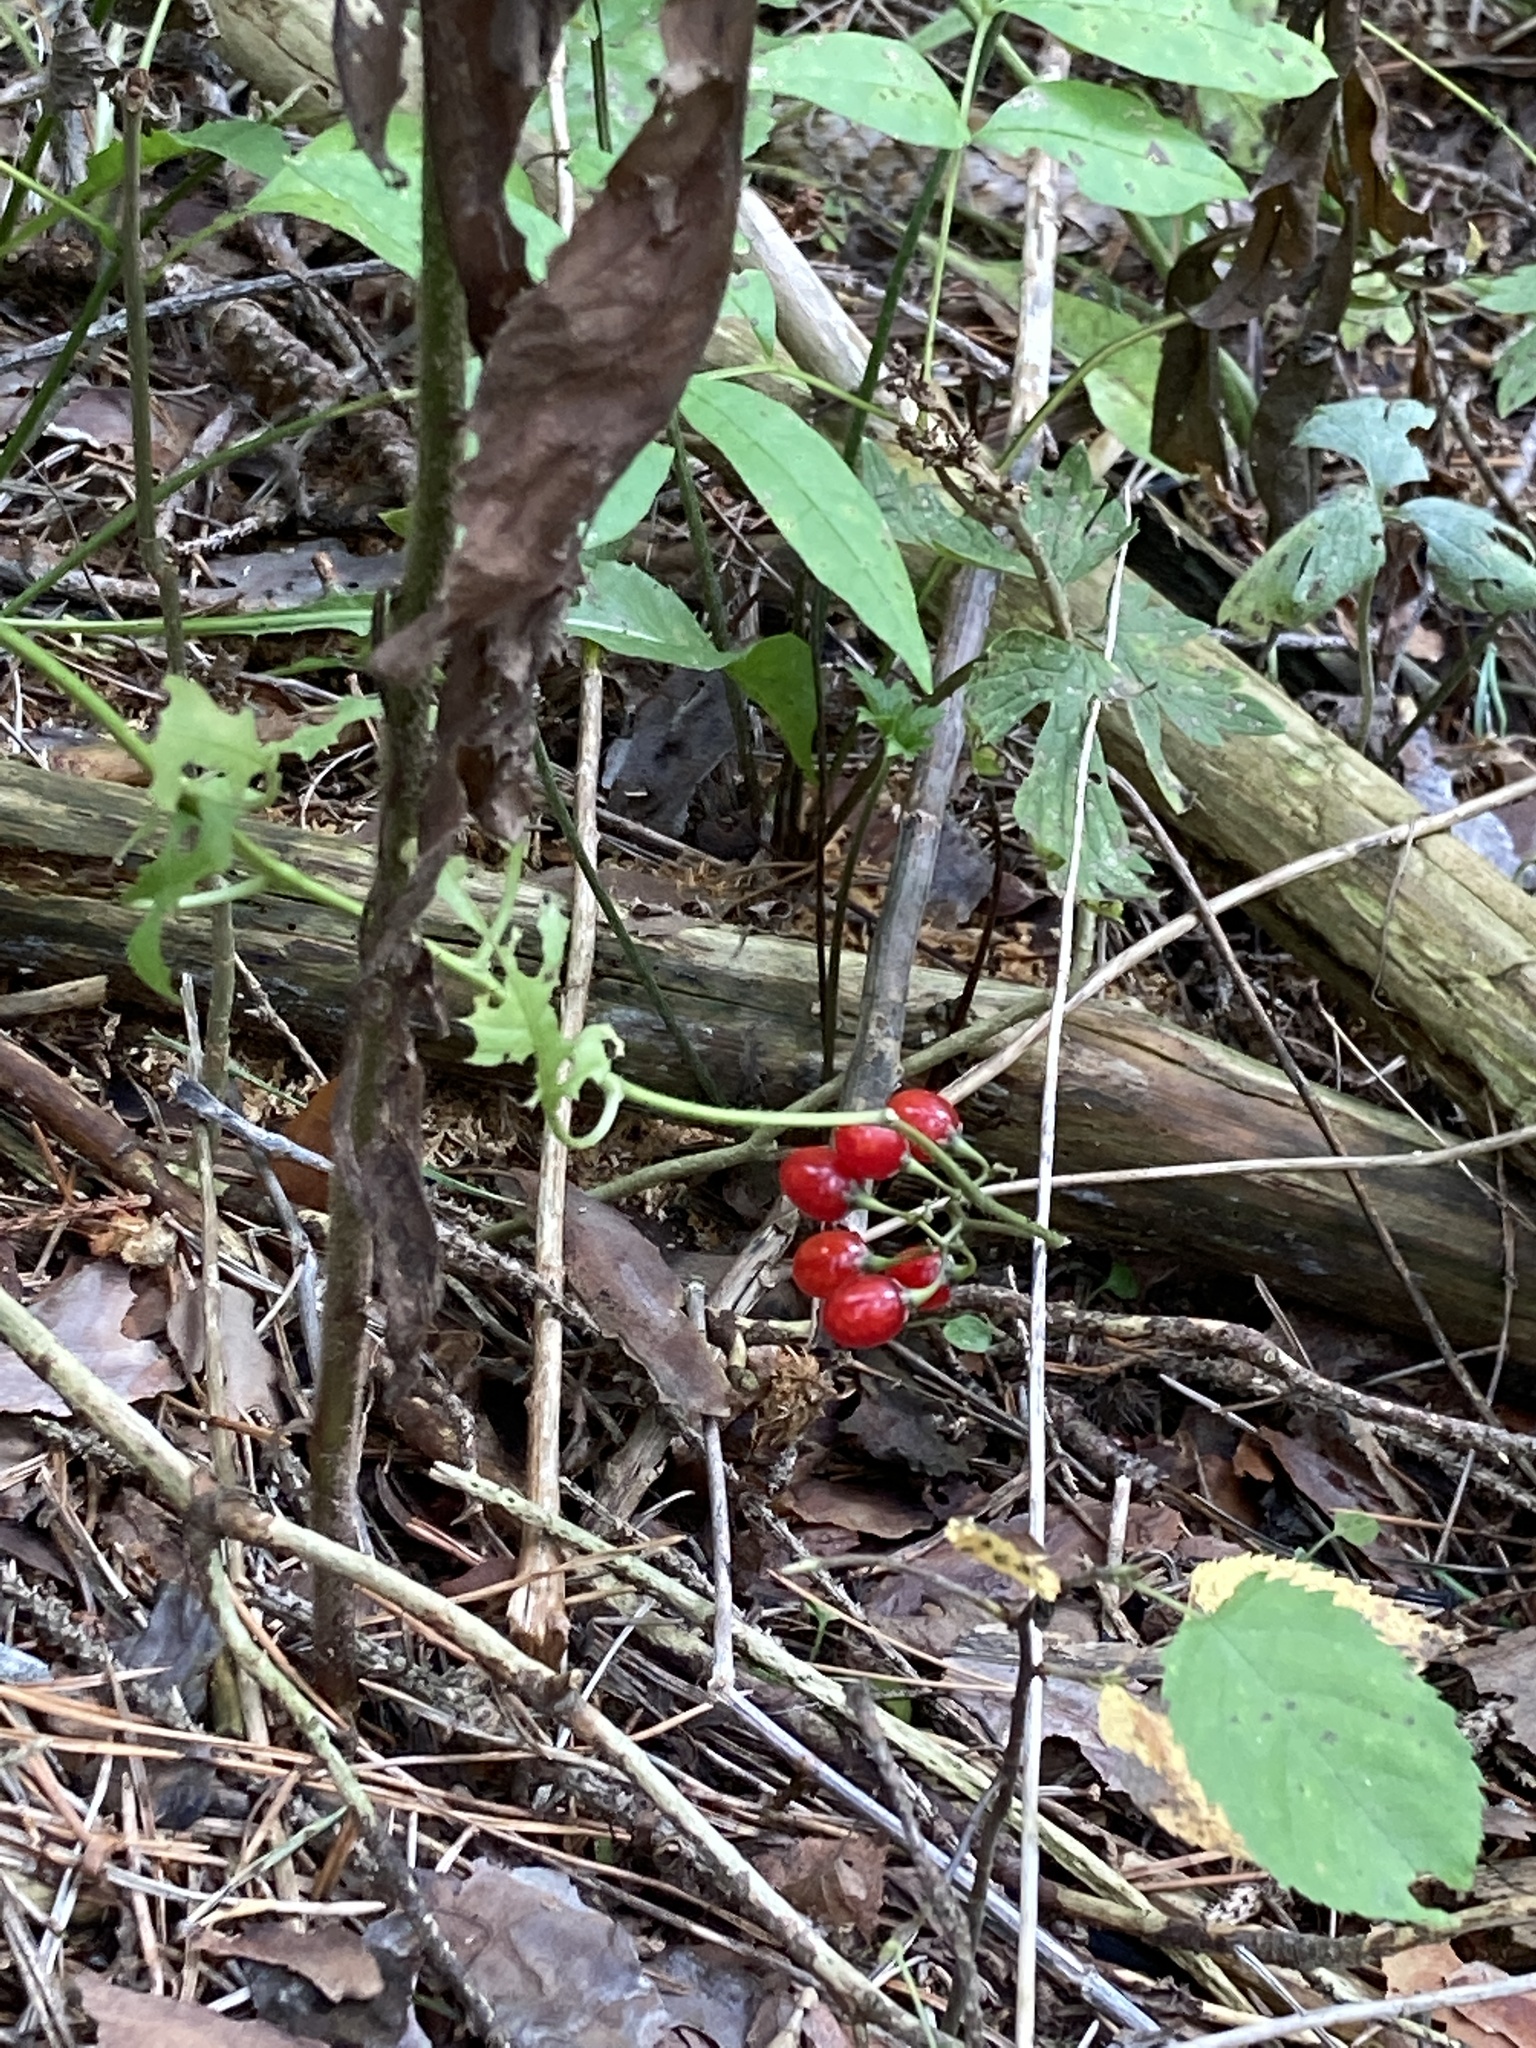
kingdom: Plantae
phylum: Tracheophyta
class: Magnoliopsida
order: Solanales
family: Solanaceae
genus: Solanum
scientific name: Solanum dulcamara
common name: Climbing nightshade
